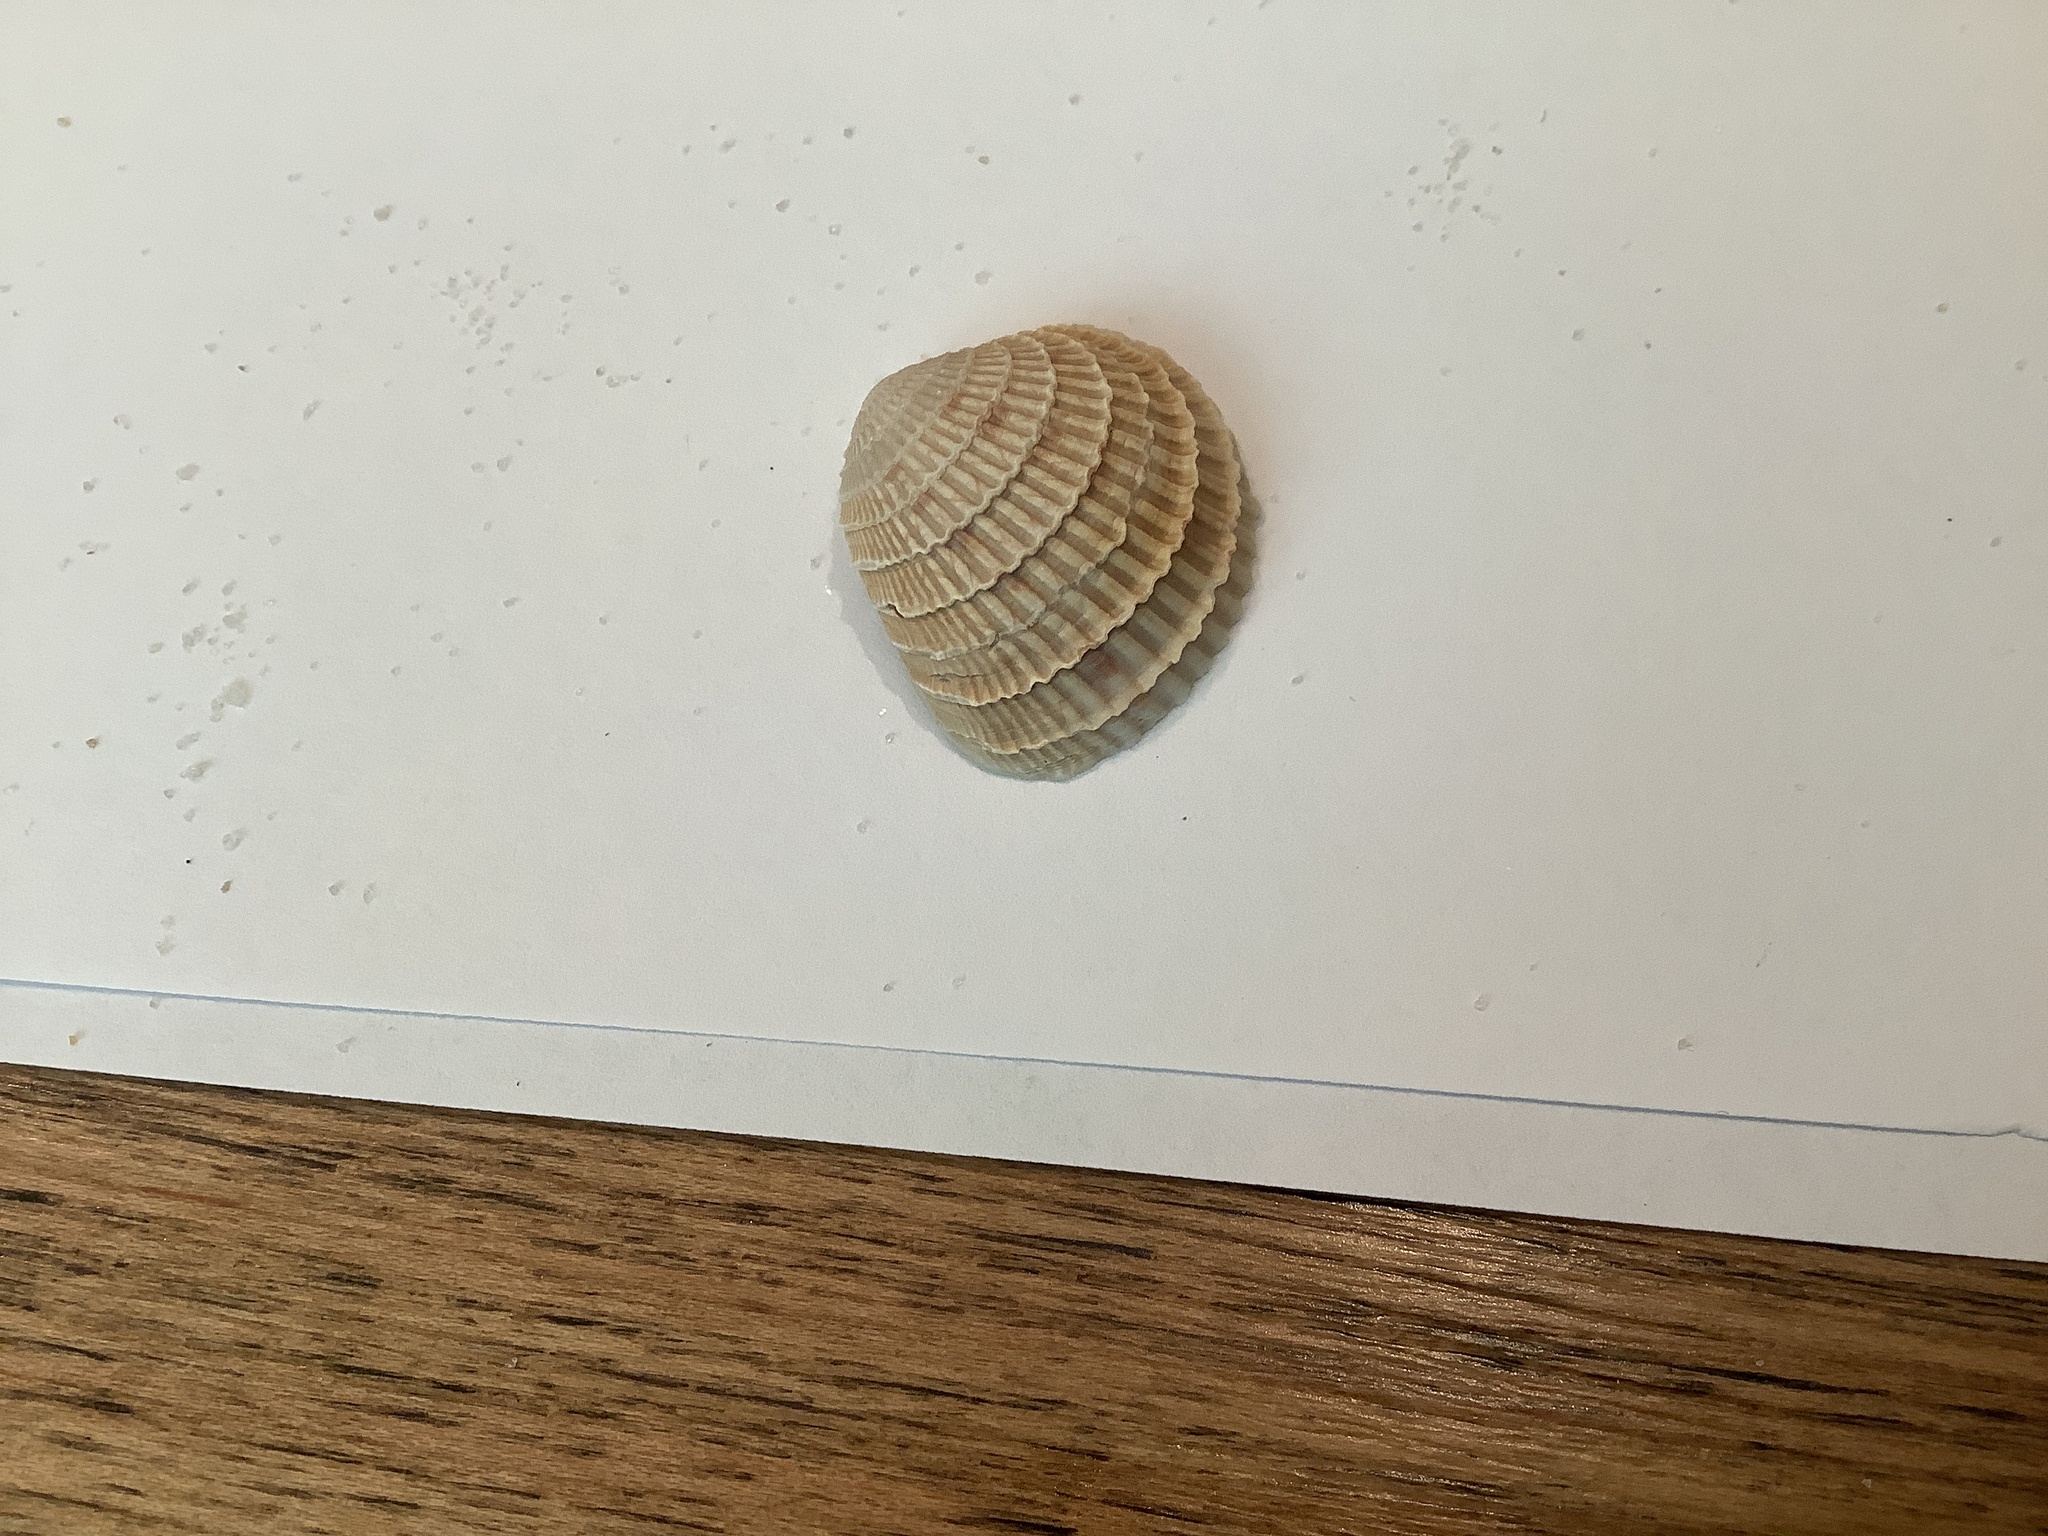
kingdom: Animalia
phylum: Mollusca
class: Bivalvia
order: Venerida
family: Veneridae
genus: Chione
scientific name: Chione elevata
